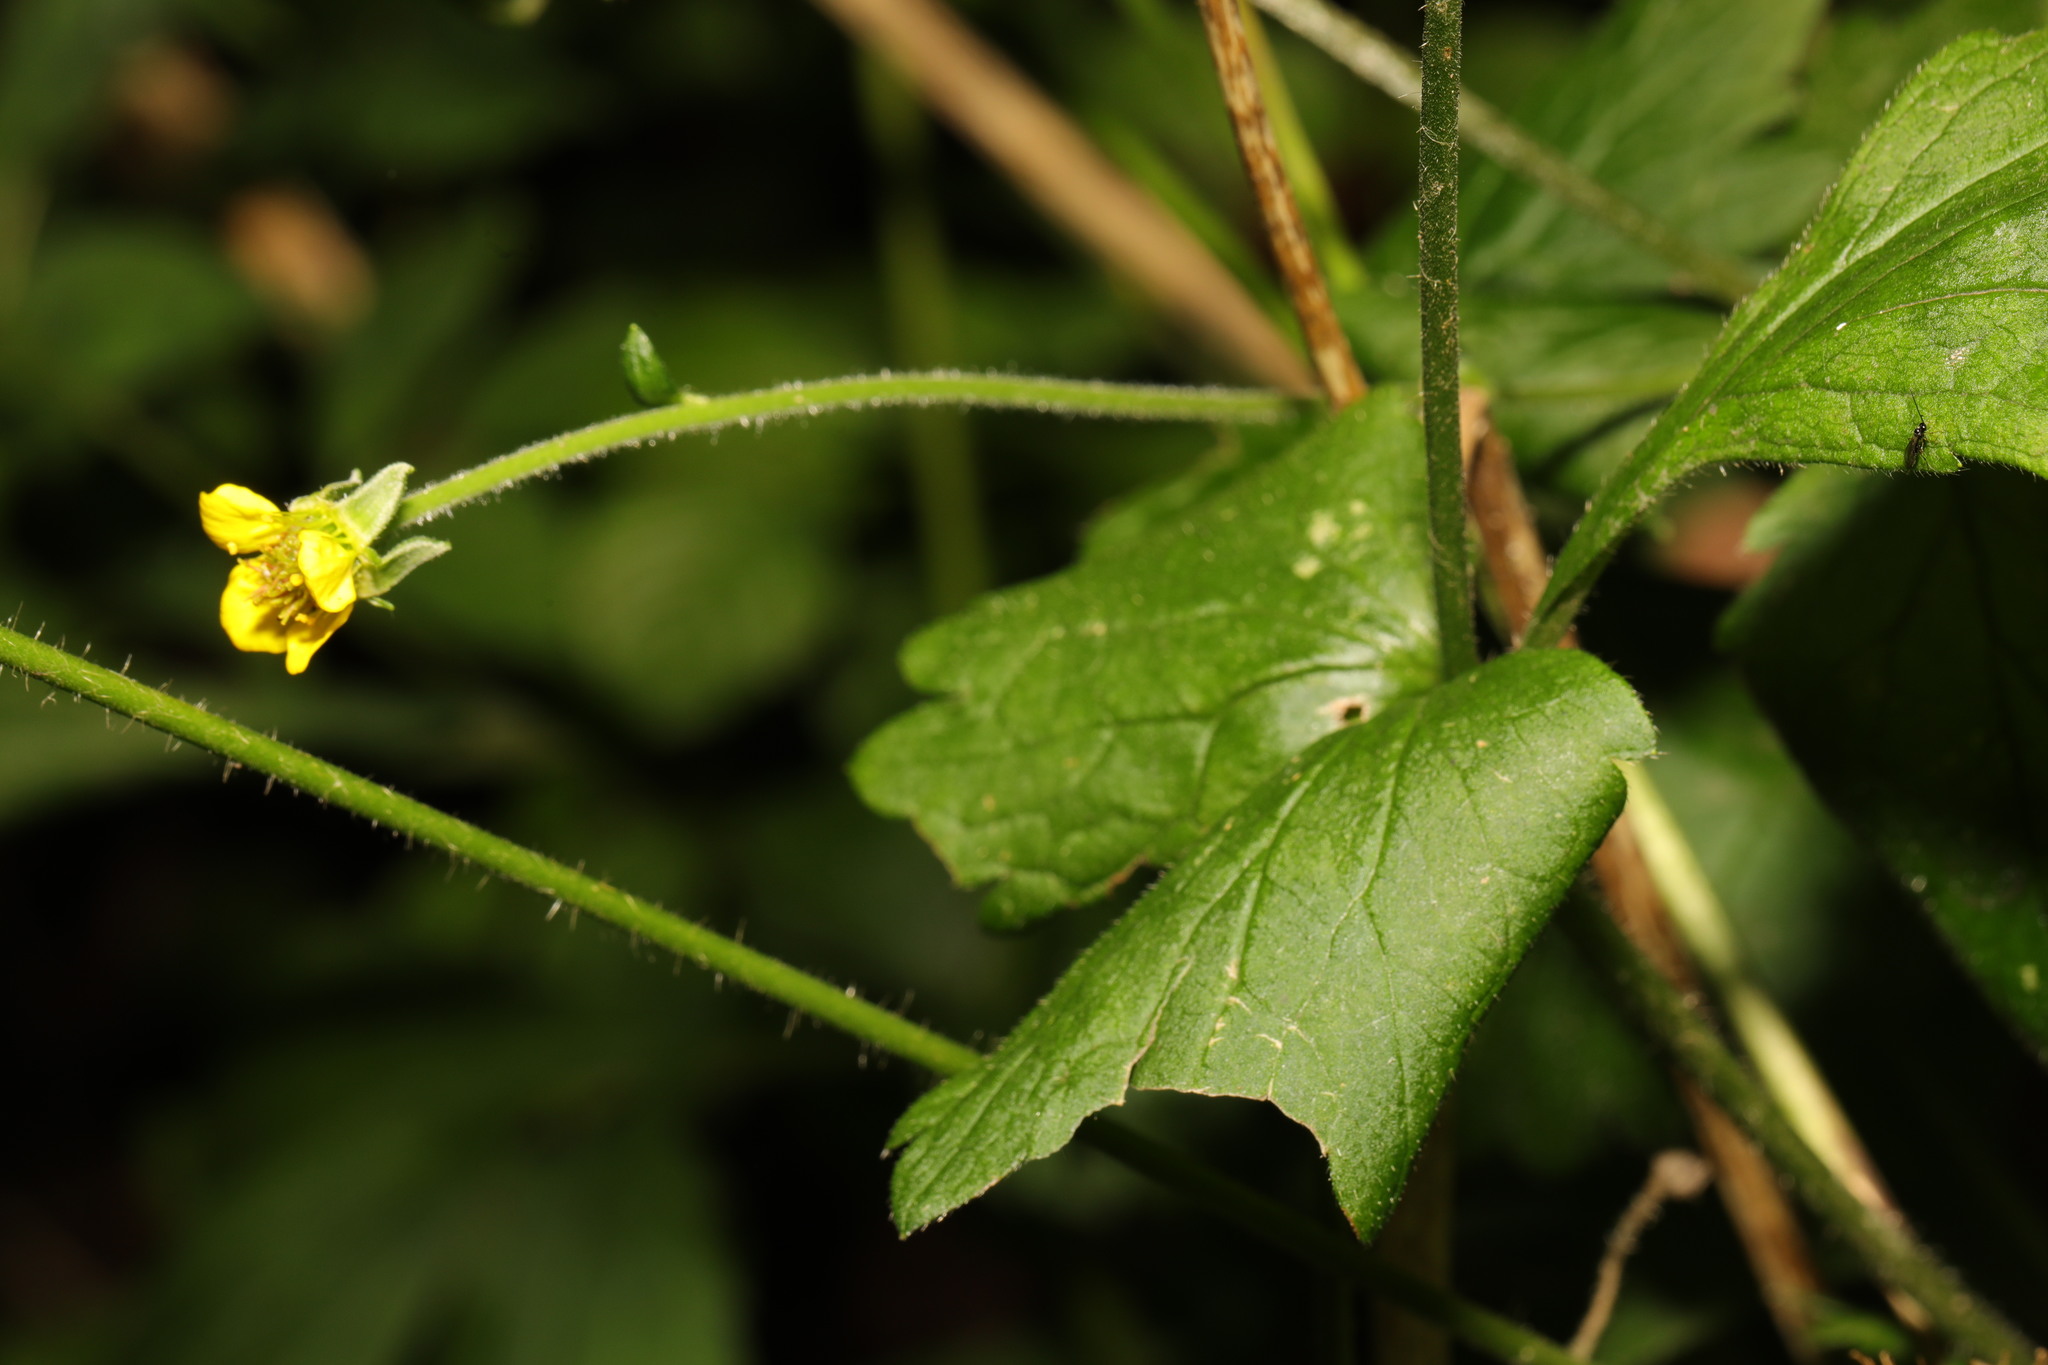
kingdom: Plantae
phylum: Tracheophyta
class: Magnoliopsida
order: Rosales
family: Rosaceae
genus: Geum
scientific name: Geum urbanum
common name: Wood avens
